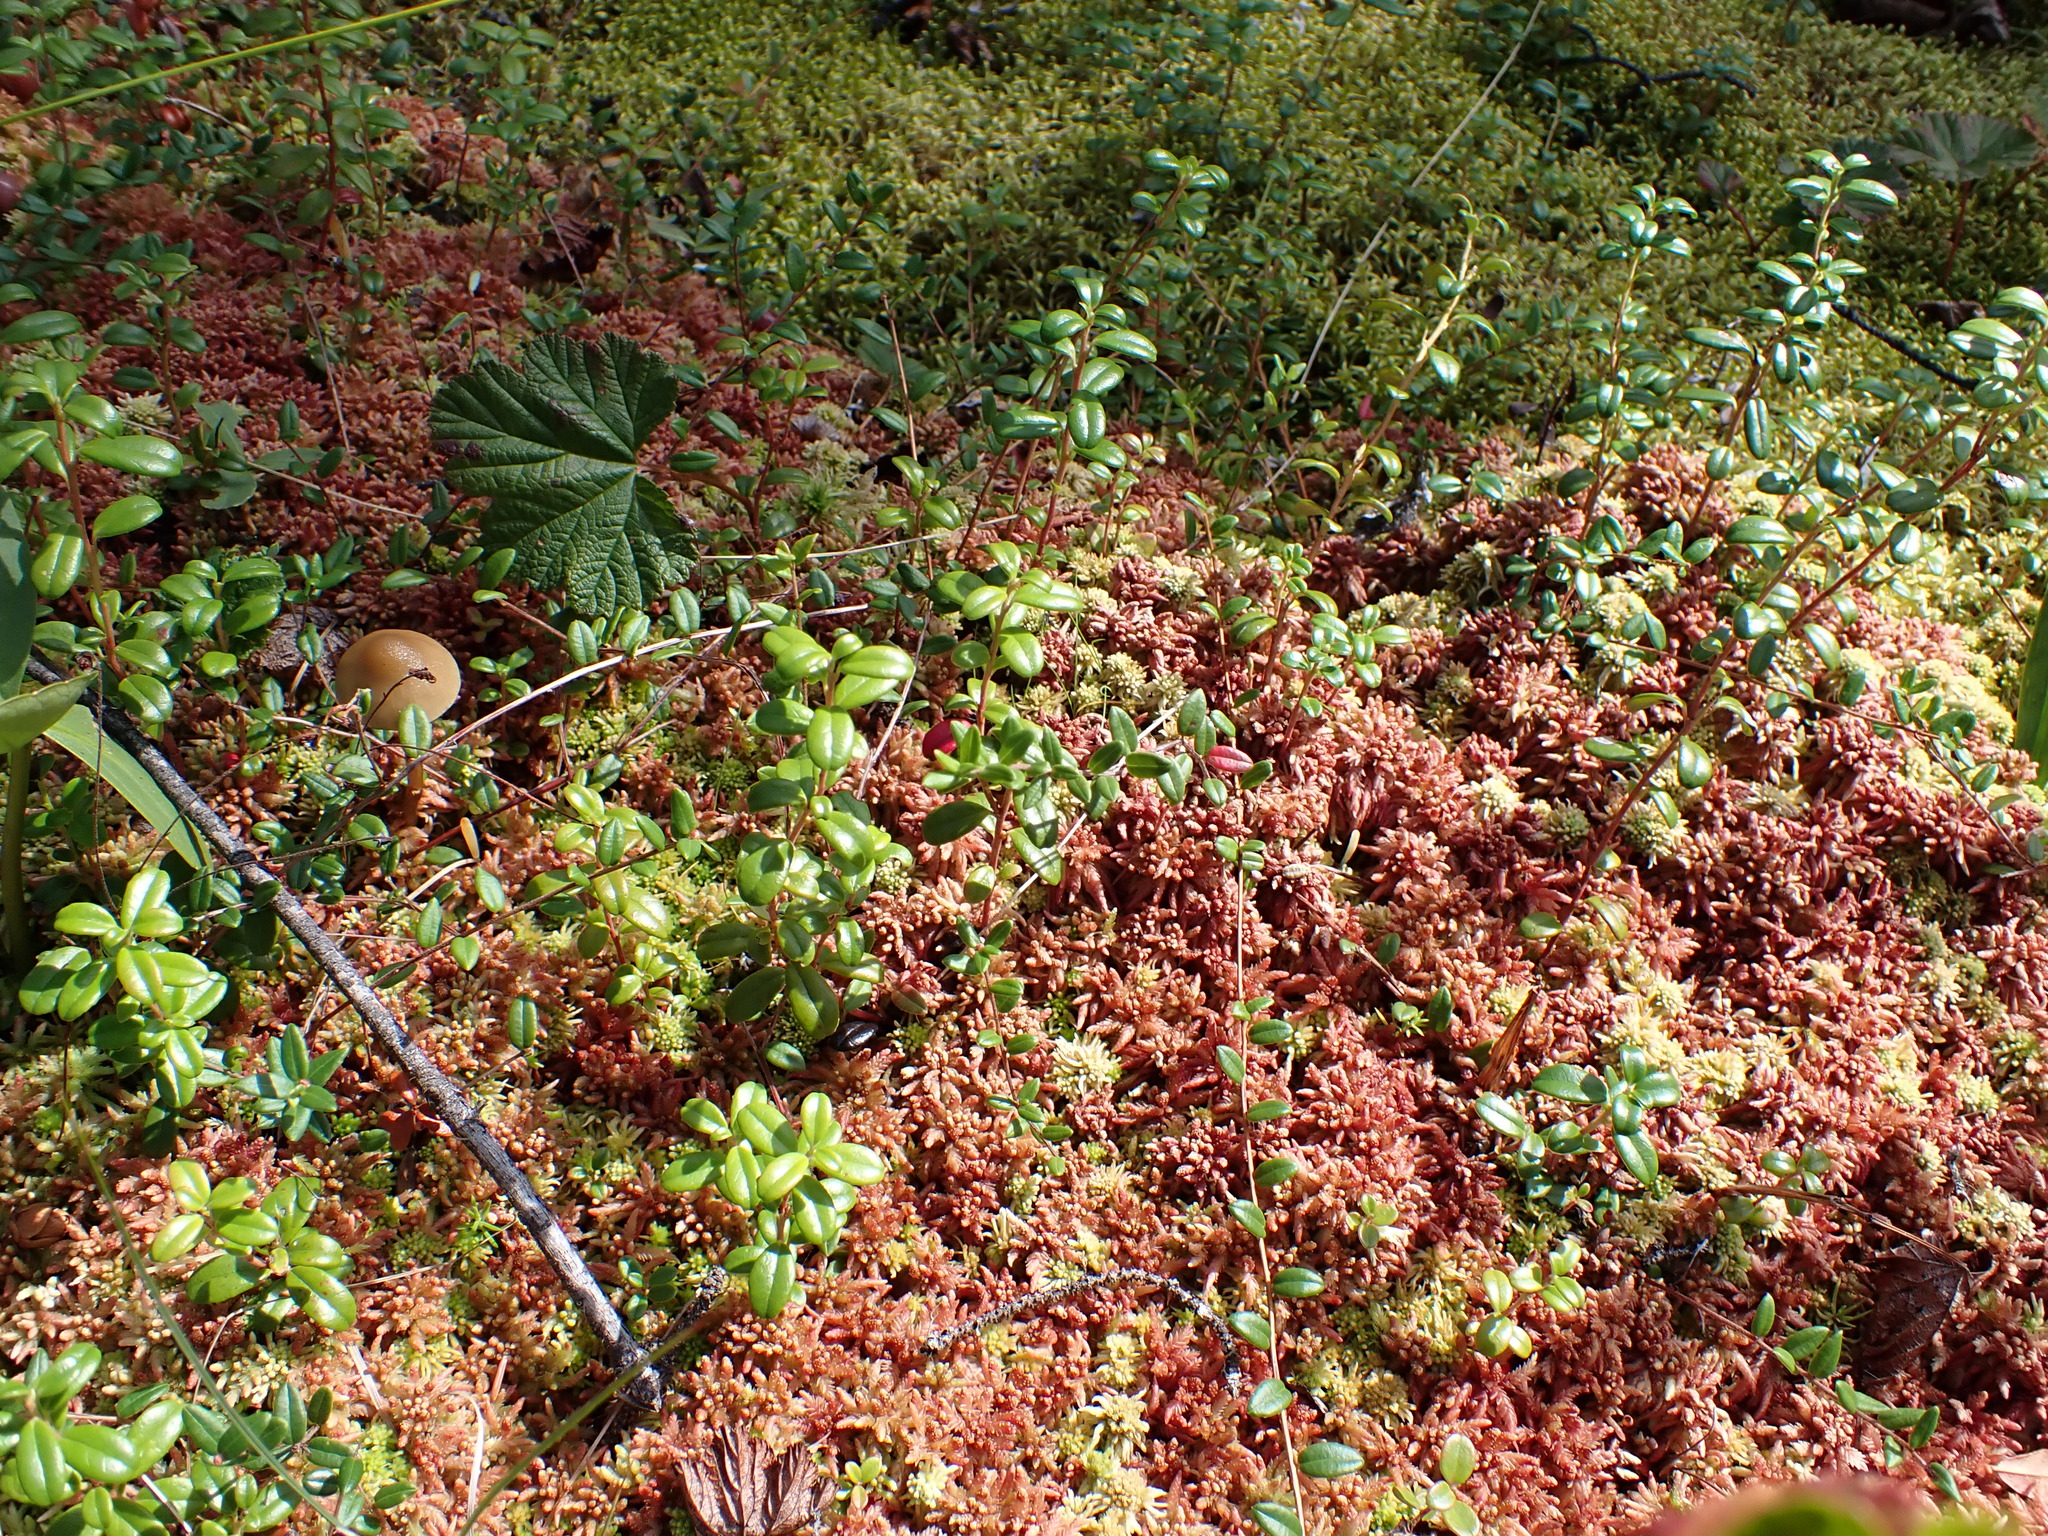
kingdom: Plantae
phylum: Tracheophyta
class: Magnoliopsida
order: Ericales
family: Ericaceae
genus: Vaccinium
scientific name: Vaccinium oxycoccos
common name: Cranberry
